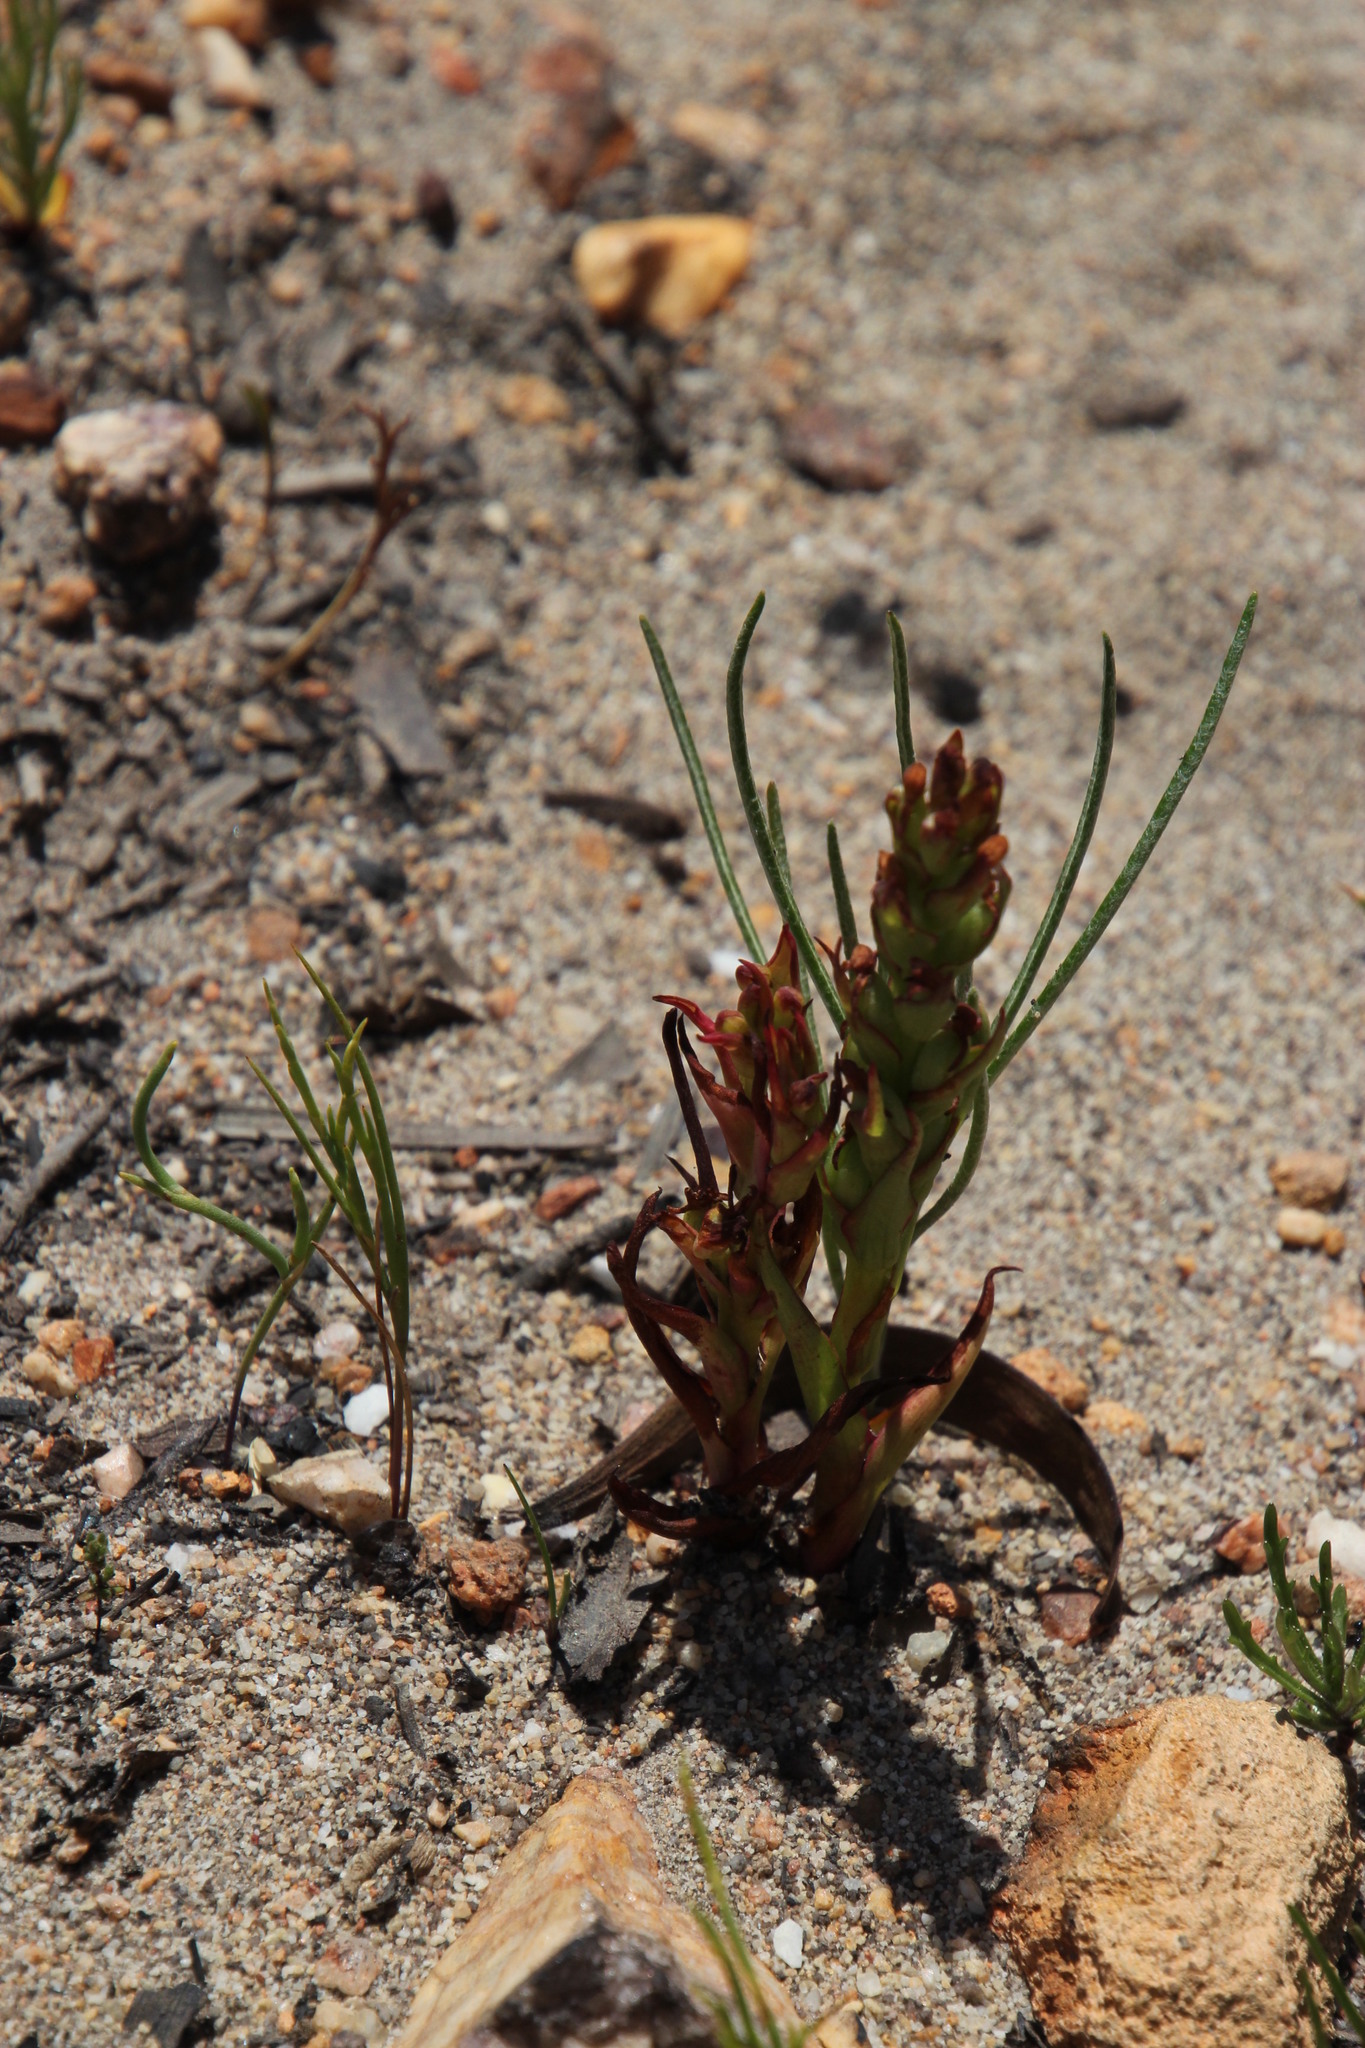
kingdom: Plantae
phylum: Tracheophyta
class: Liliopsida
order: Asparagales
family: Orchidaceae
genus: Disa
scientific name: Disa bracteata
